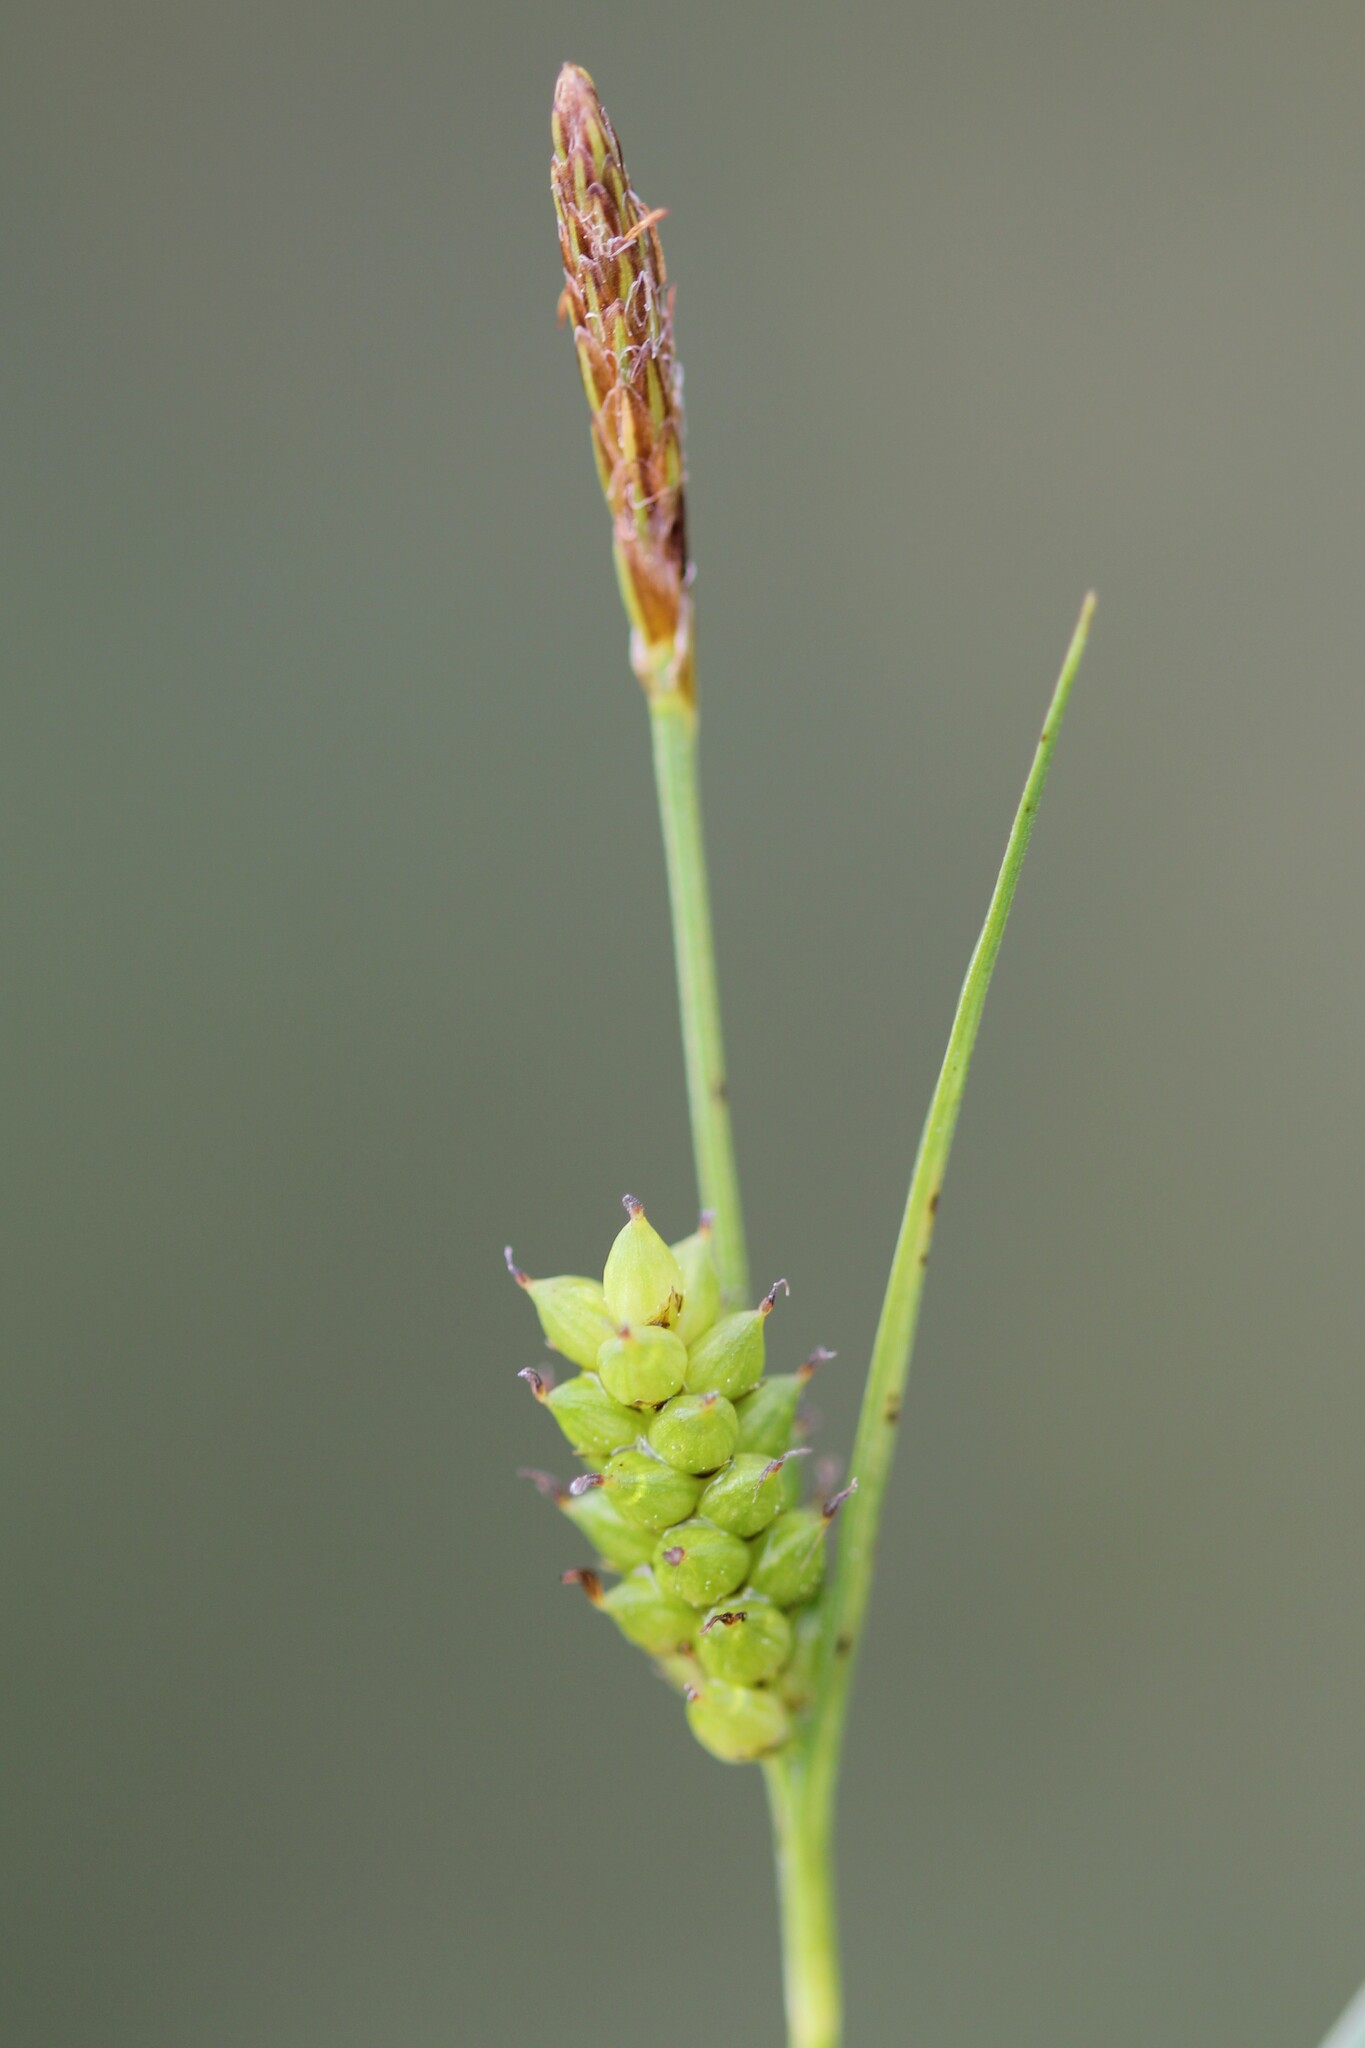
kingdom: Plantae
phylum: Tracheophyta
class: Liliopsida
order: Poales
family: Cyperaceae
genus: Carex
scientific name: Carex crawei
